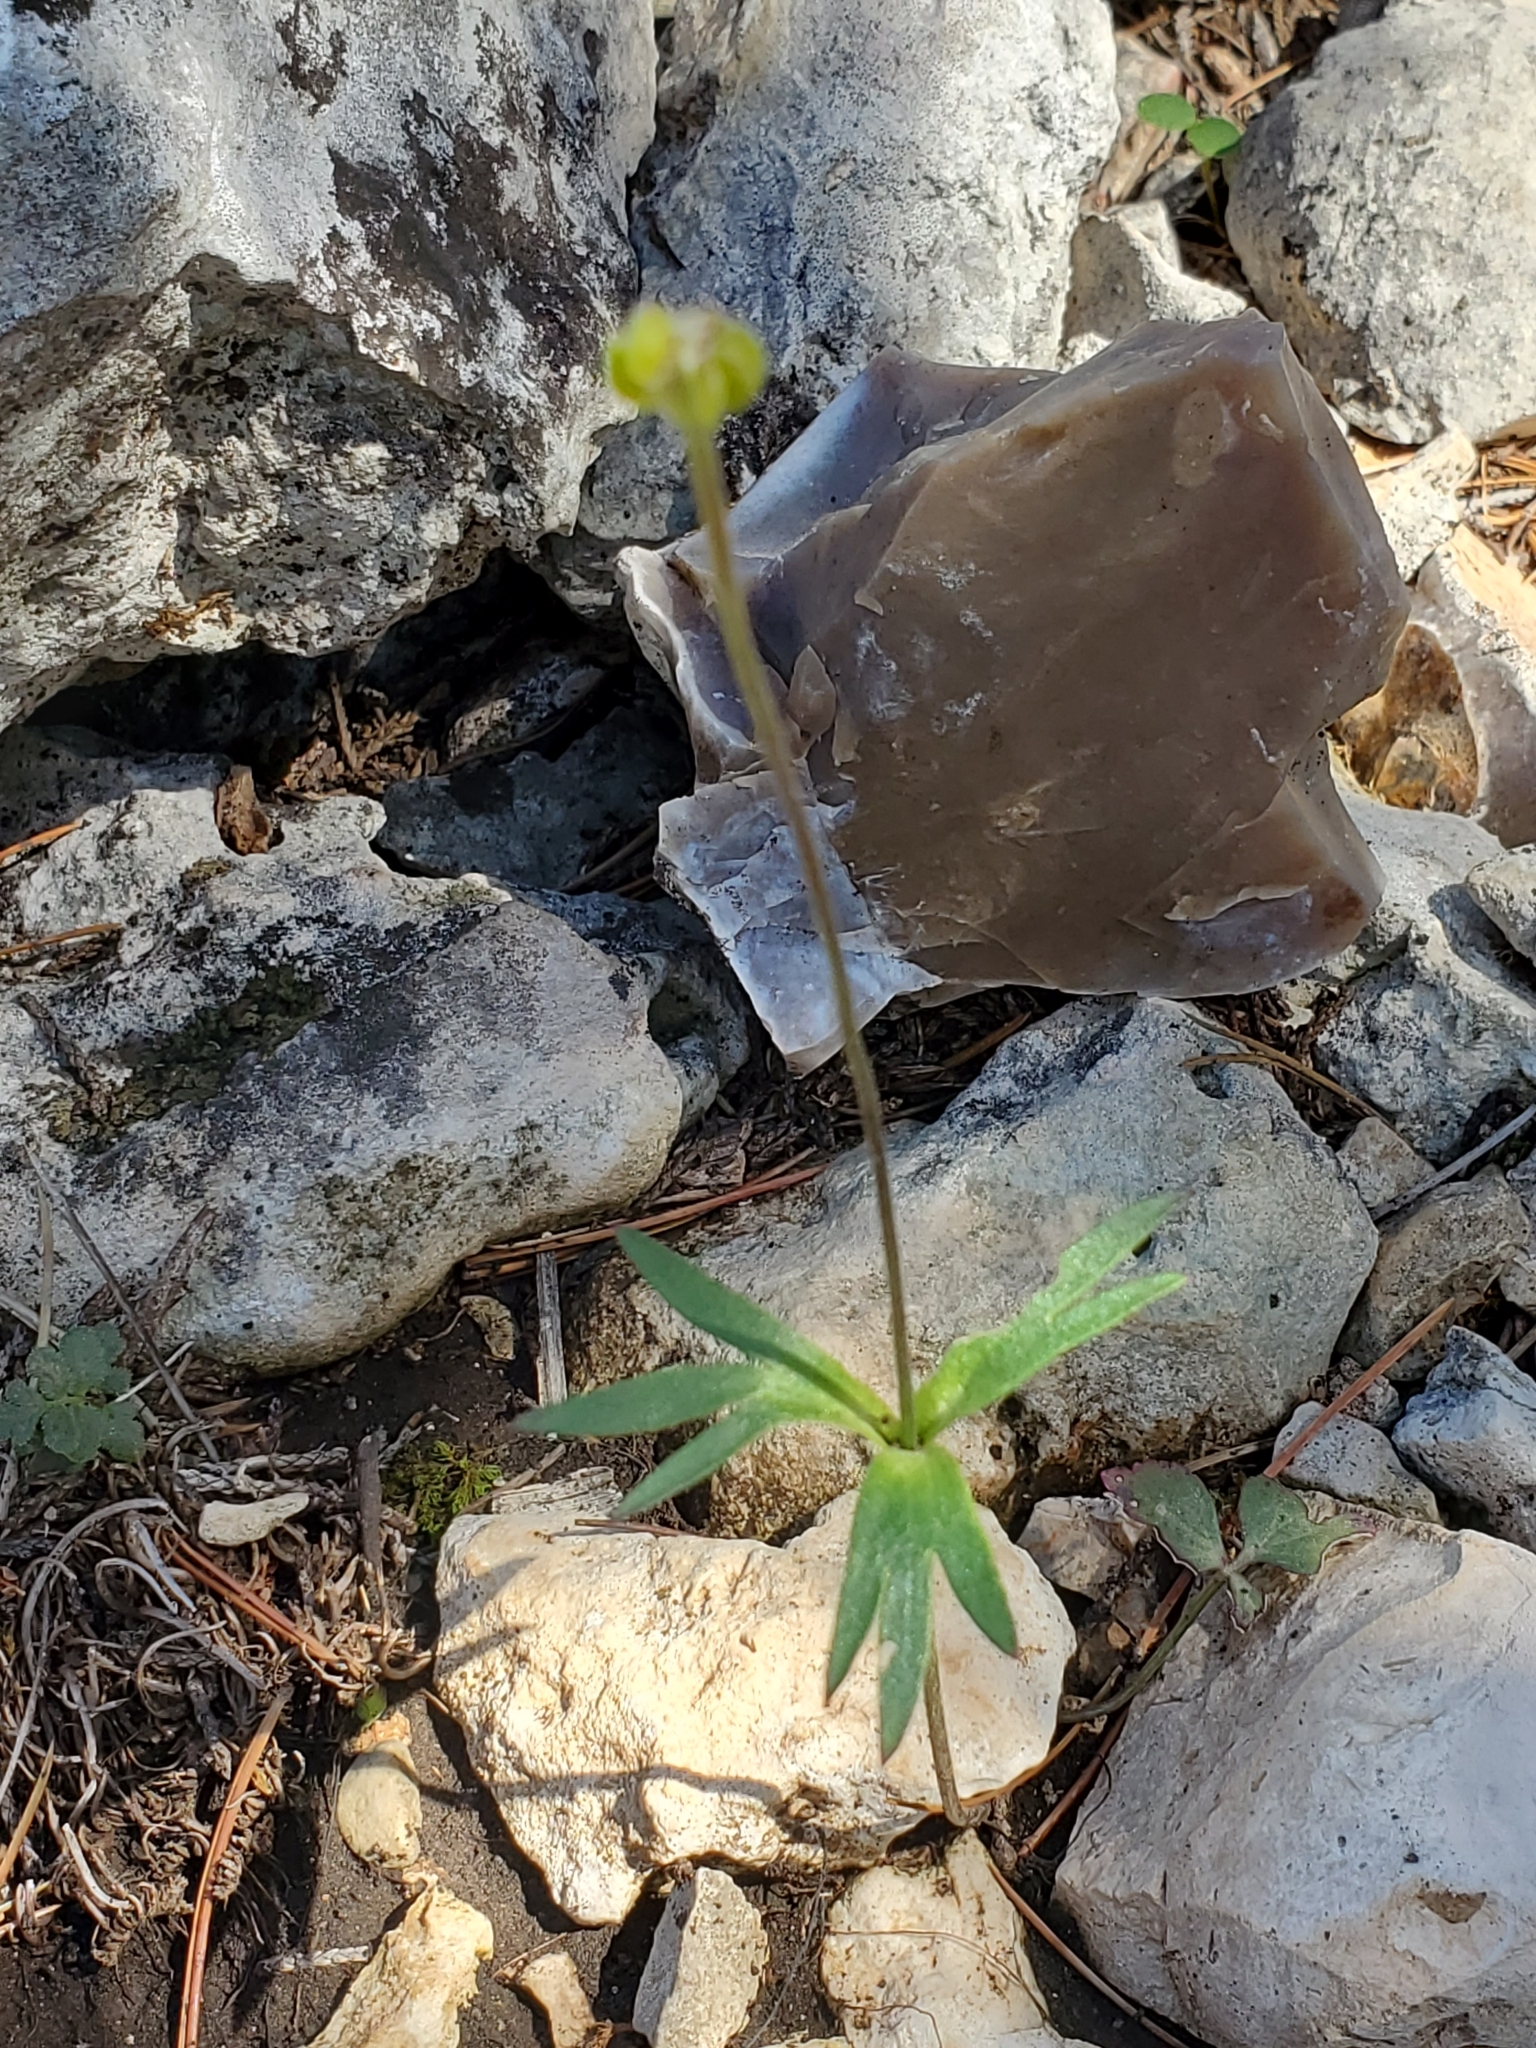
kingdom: Plantae
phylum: Tracheophyta
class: Magnoliopsida
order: Ranunculales
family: Ranunculaceae
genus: Anemone
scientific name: Anemone edwardsiana
